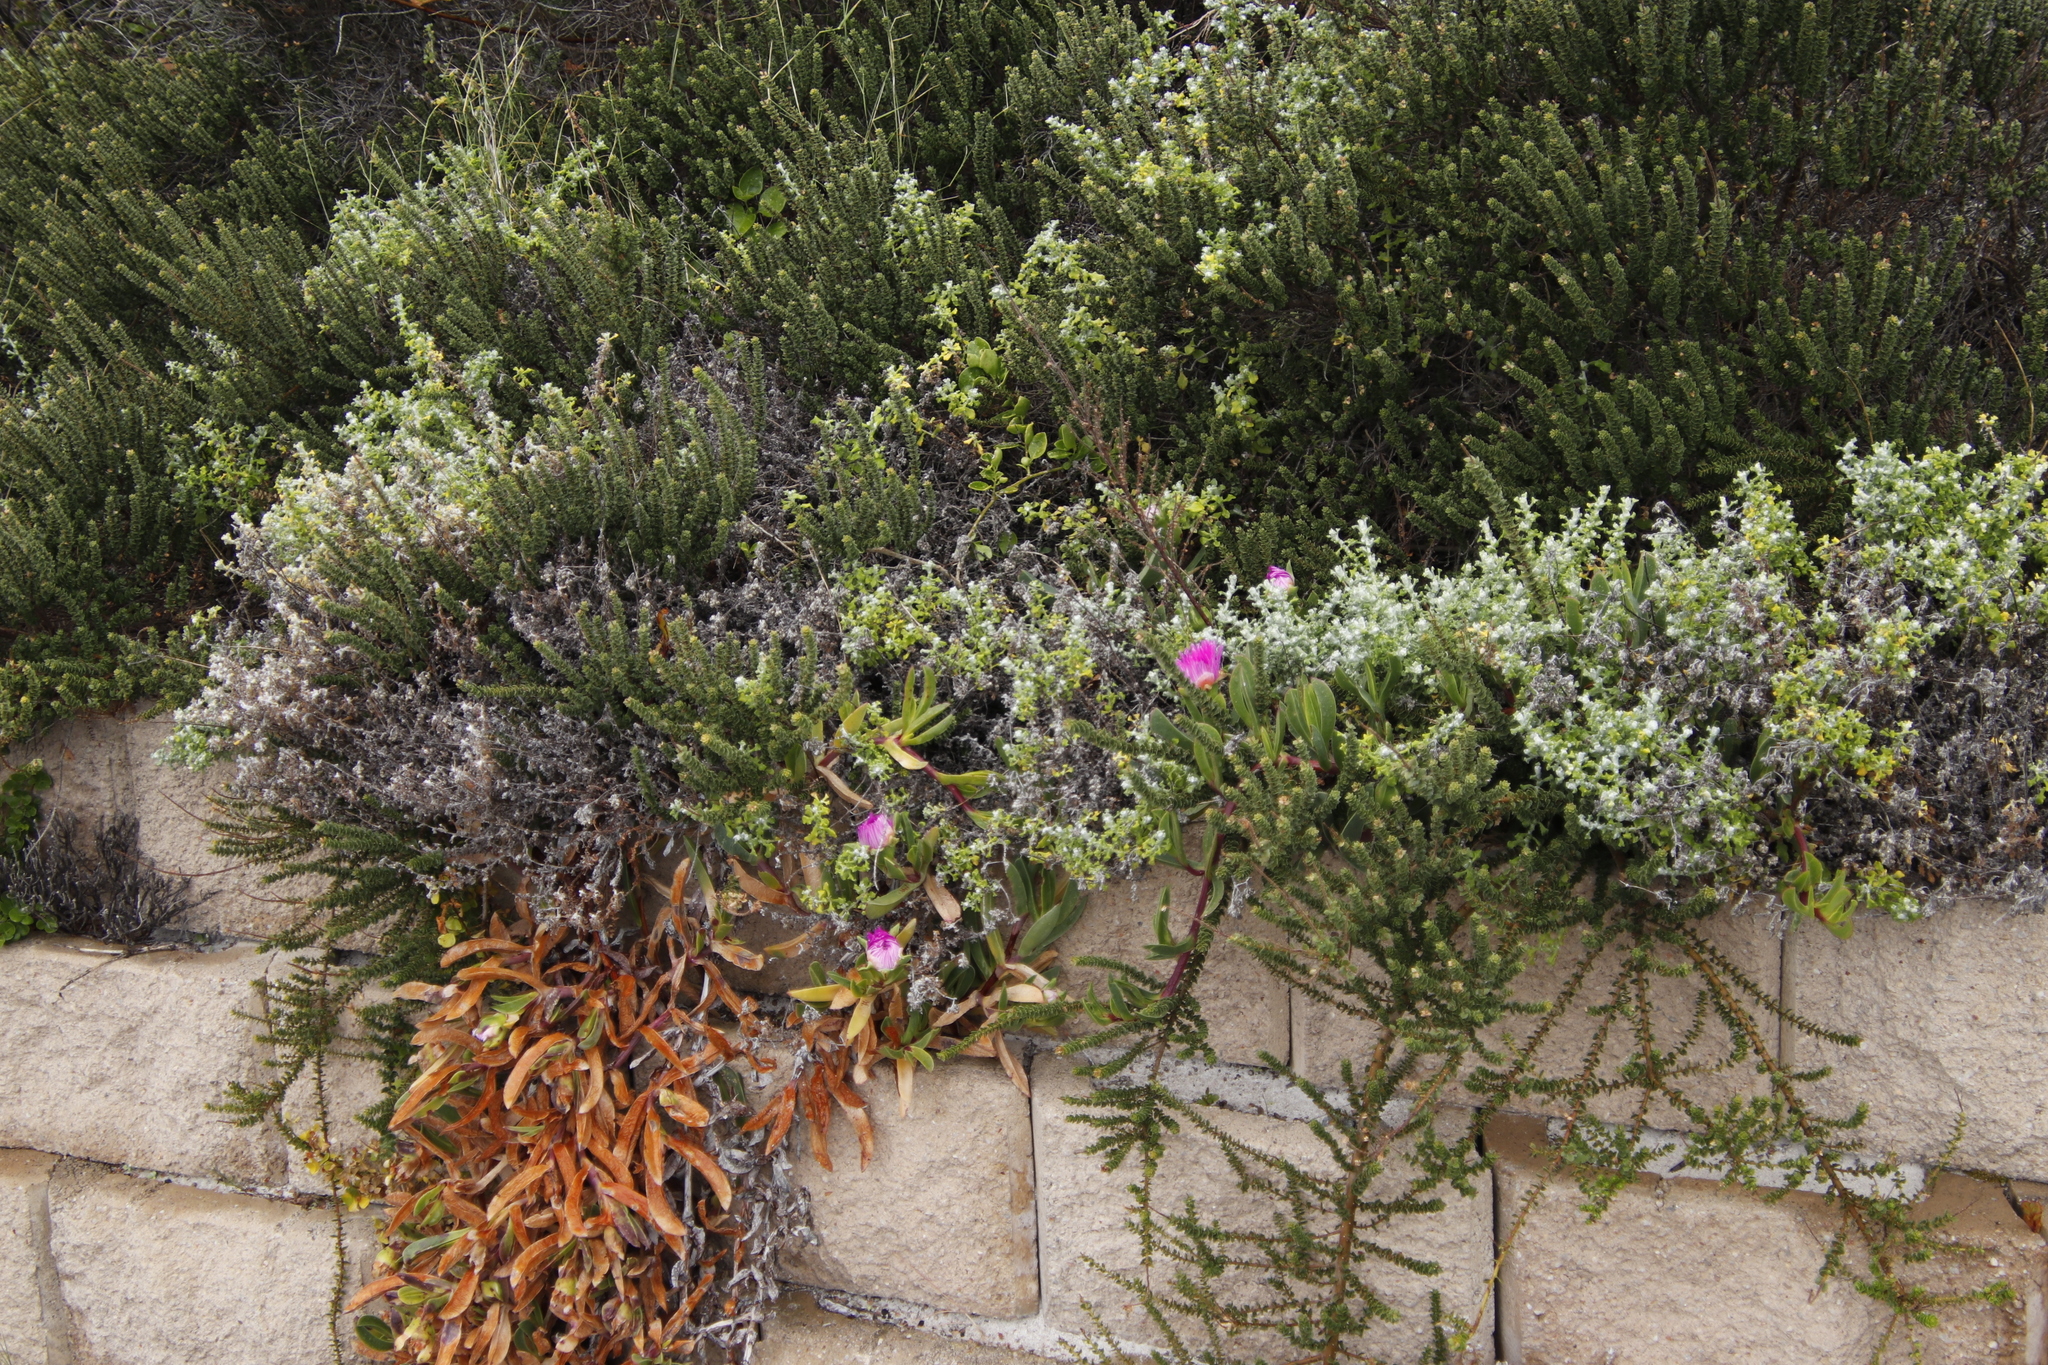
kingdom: Plantae
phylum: Tracheophyta
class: Magnoliopsida
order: Caryophyllales
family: Aizoaceae
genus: Carpobrotus
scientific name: Carpobrotus acinaciformis
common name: Sally-my-handsome
